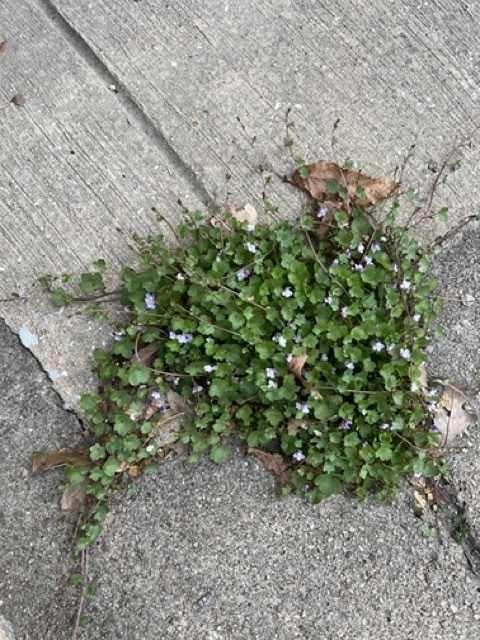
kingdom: Plantae
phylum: Tracheophyta
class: Magnoliopsida
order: Lamiales
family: Plantaginaceae
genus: Cymbalaria
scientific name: Cymbalaria muralis
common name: Ivy-leaved toadflax
